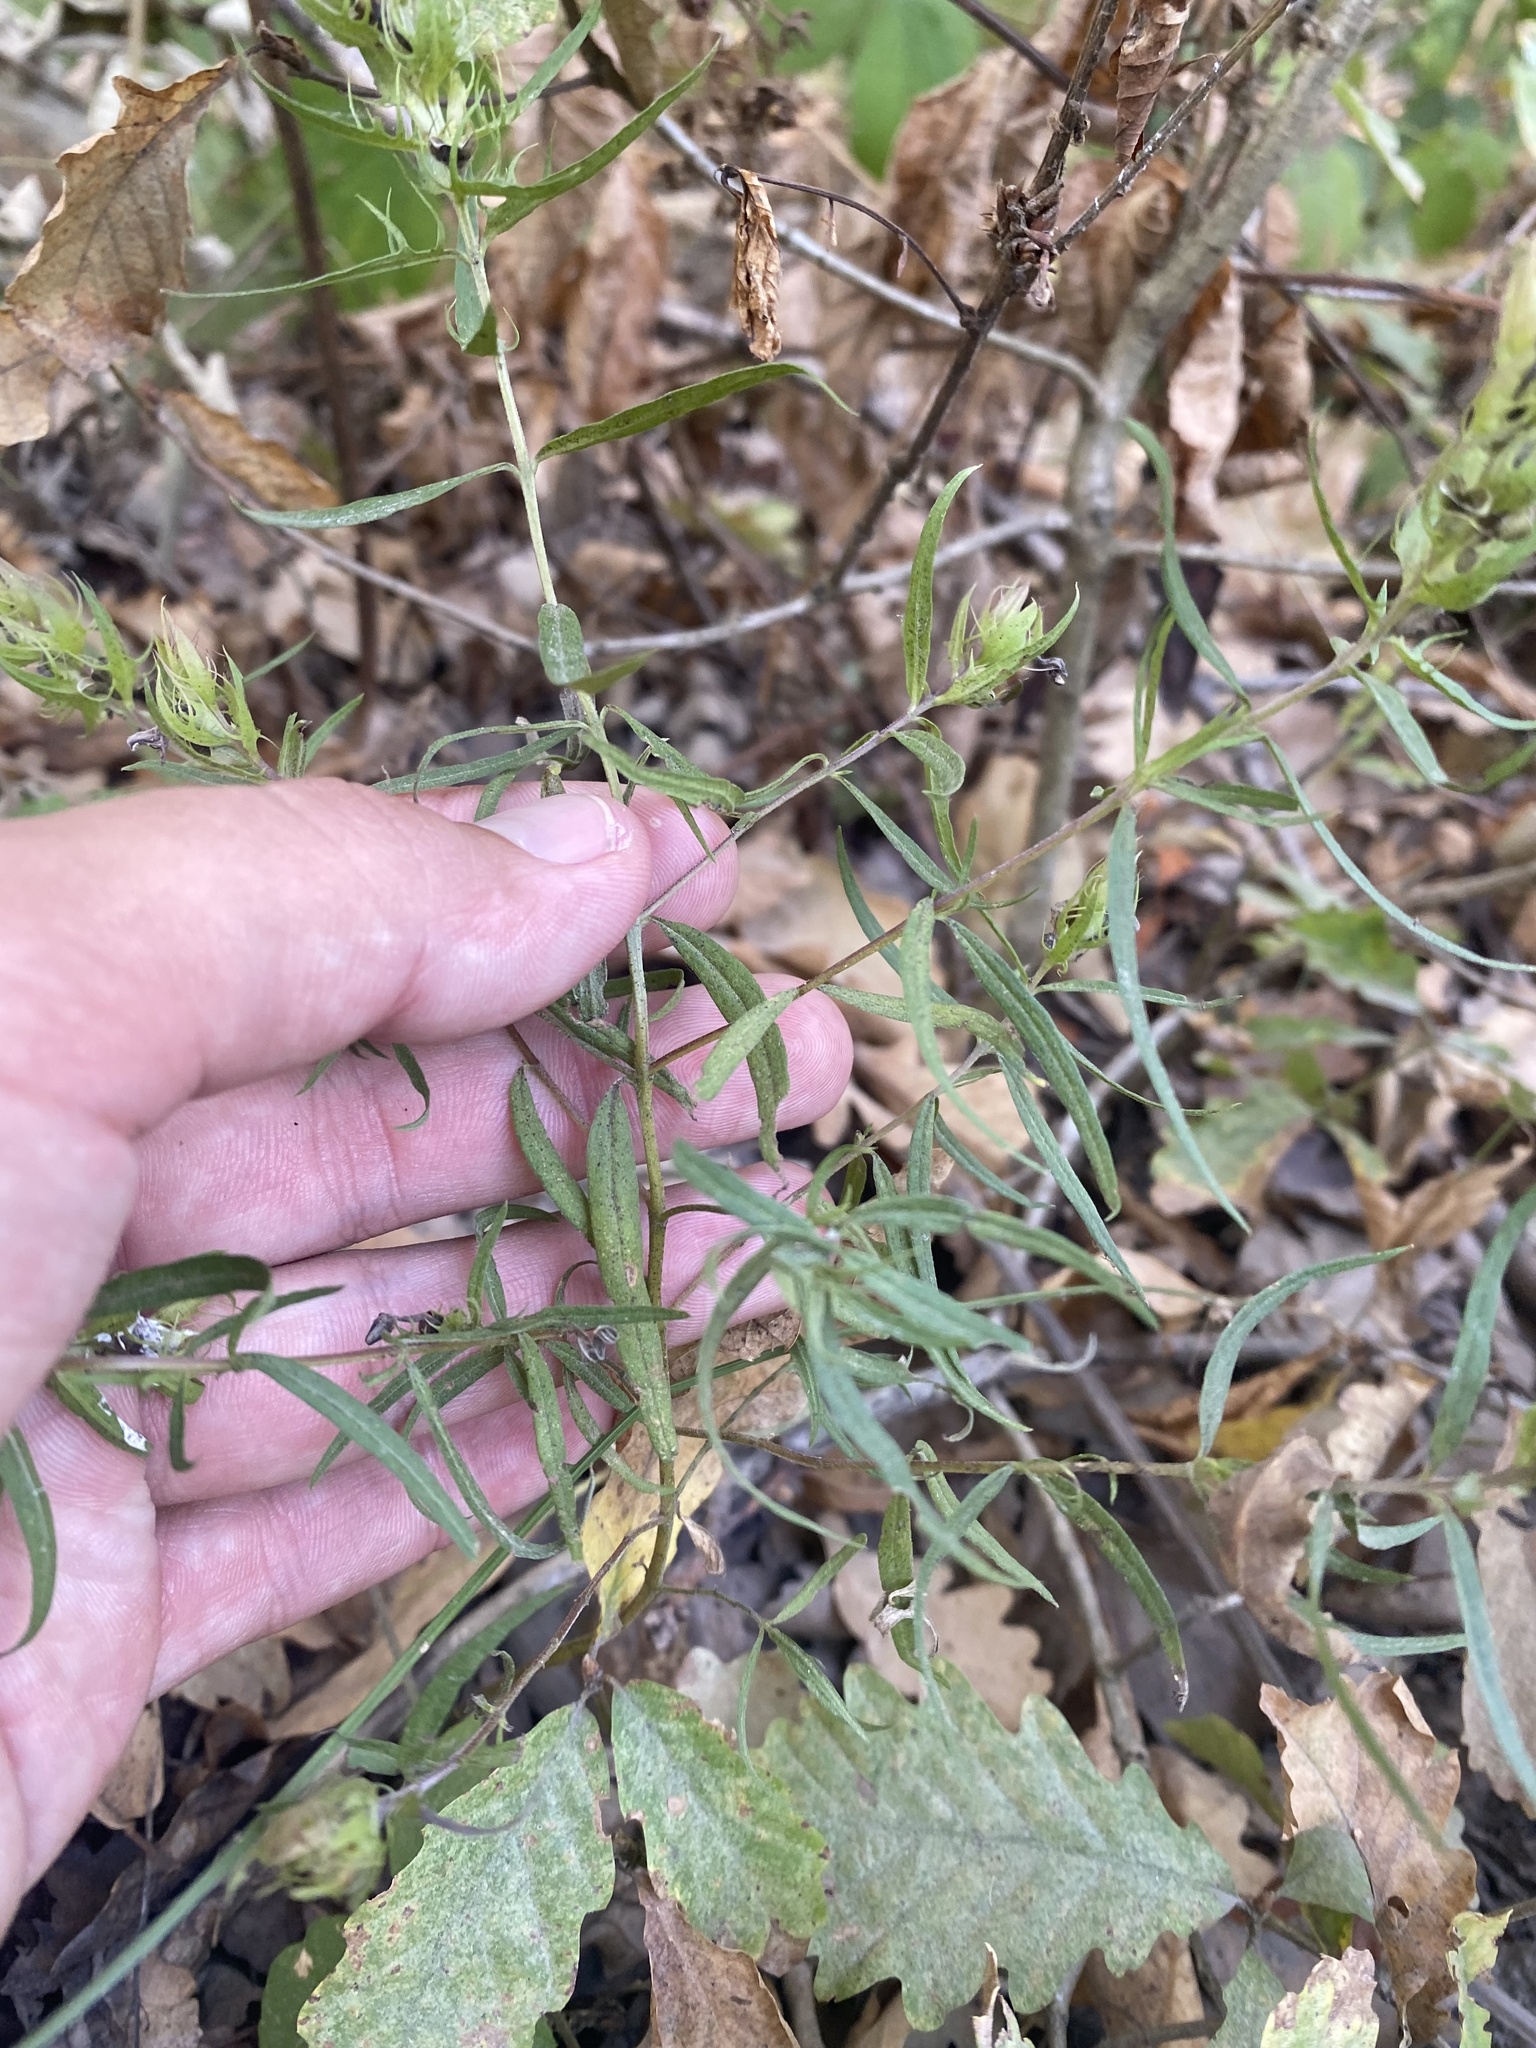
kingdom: Plantae
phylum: Tracheophyta
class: Magnoliopsida
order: Lamiales
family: Orobanchaceae
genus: Melampyrum
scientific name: Melampyrum arvense
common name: Field cow-wheat
